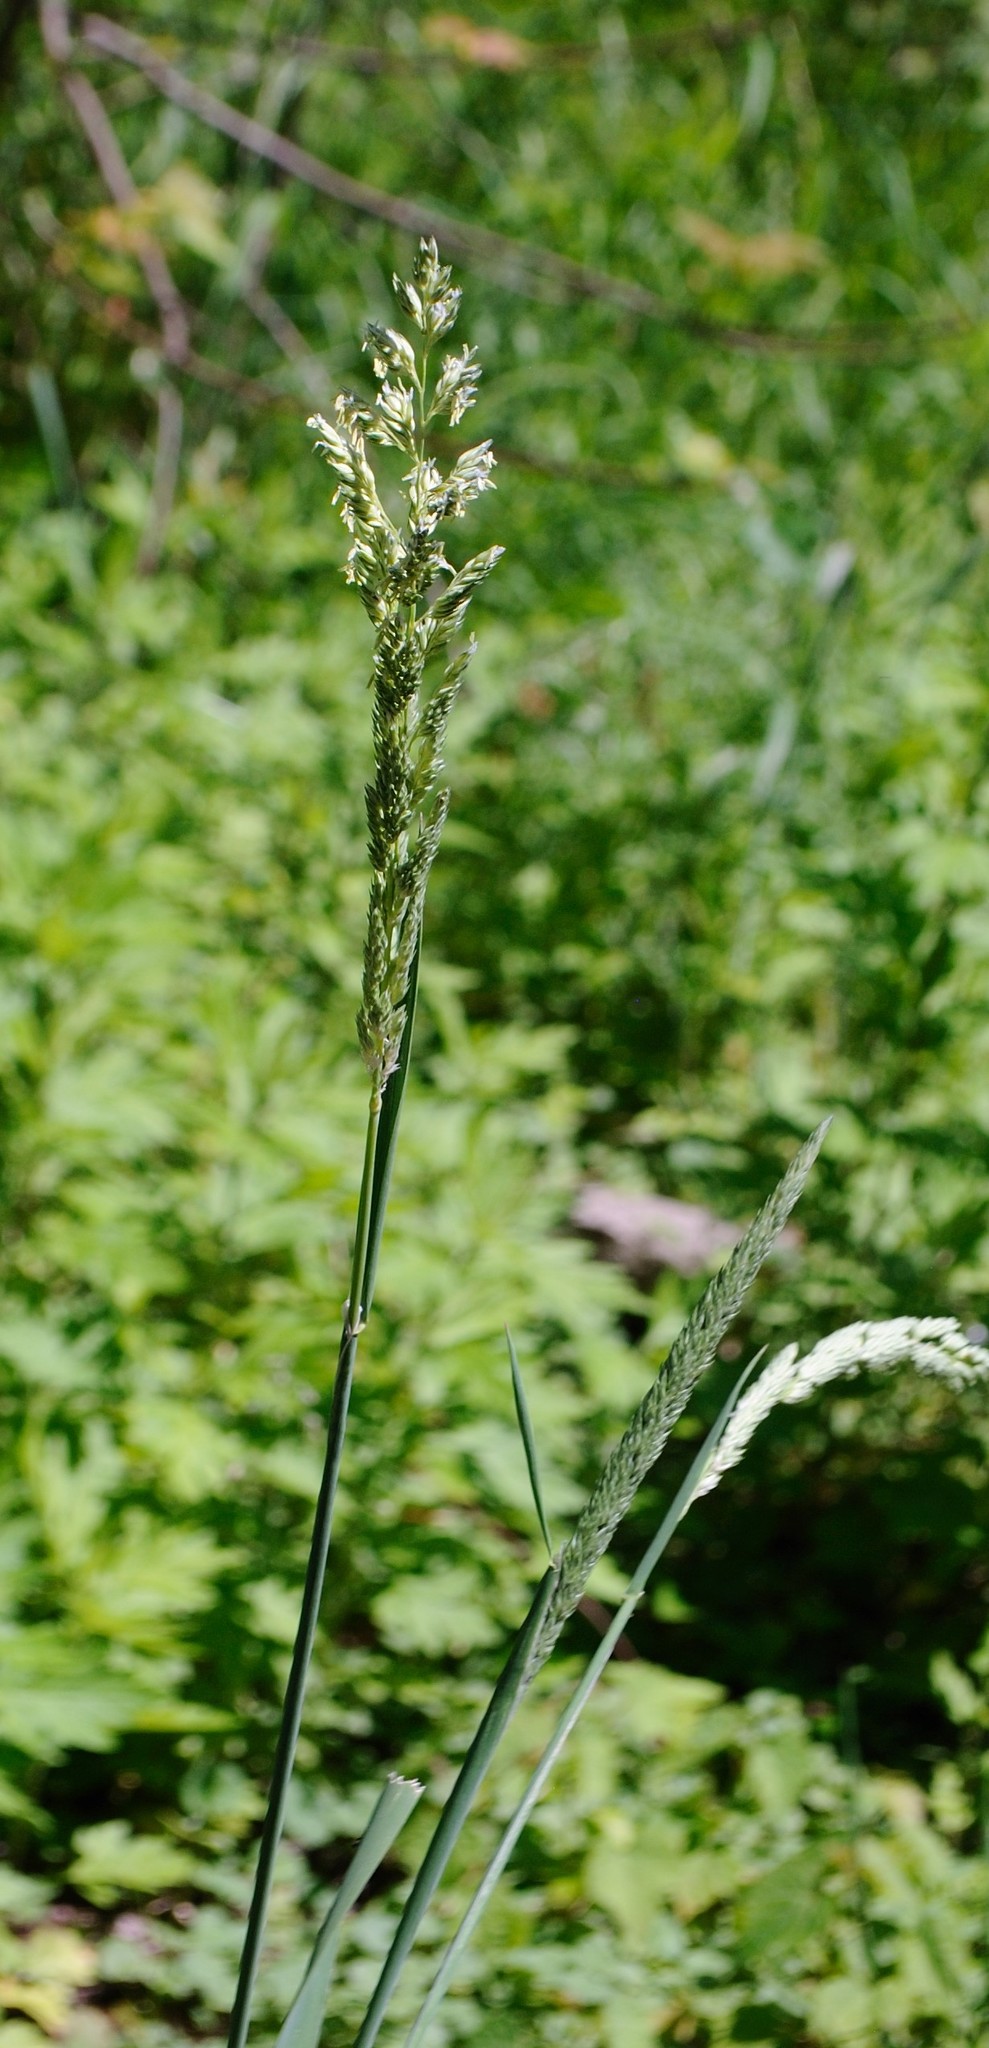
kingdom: Plantae
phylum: Tracheophyta
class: Liliopsida
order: Poales
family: Poaceae
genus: Phalaris
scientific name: Phalaris arundinacea
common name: Reed canary-grass
